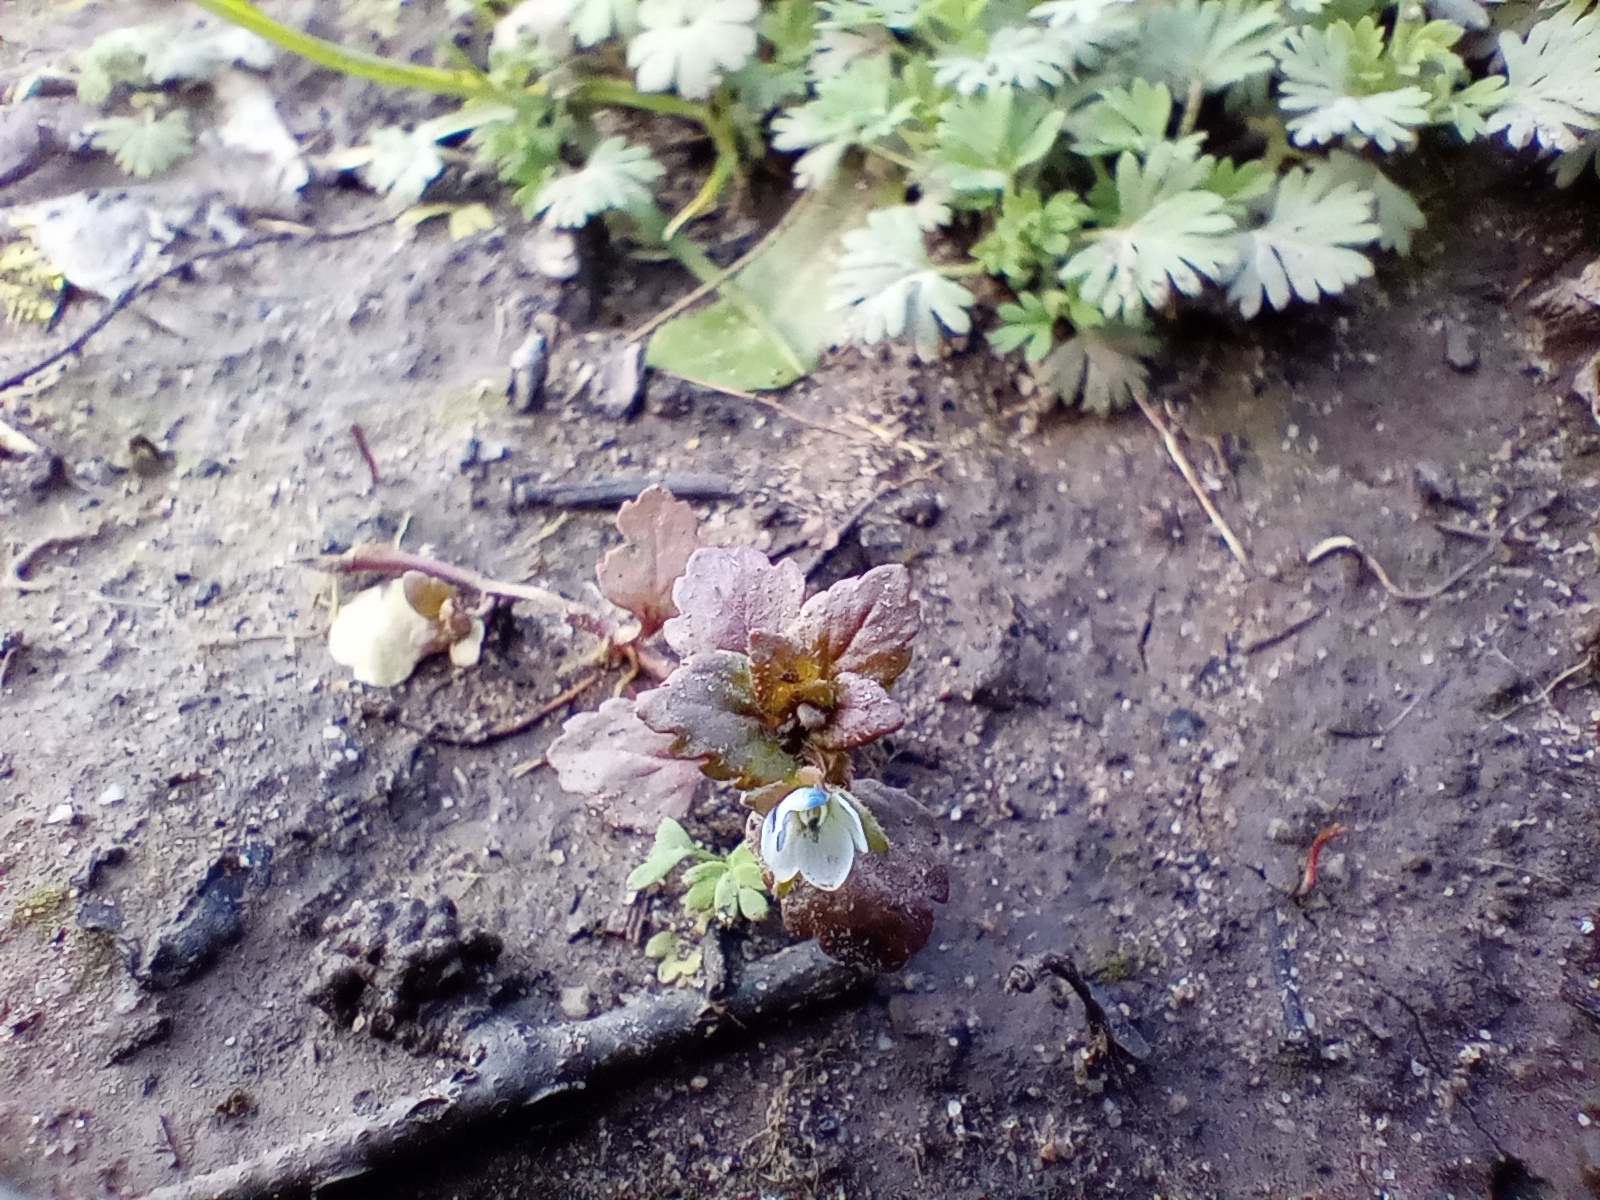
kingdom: Plantae
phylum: Tracheophyta
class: Magnoliopsida
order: Lamiales
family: Plantaginaceae
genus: Veronica
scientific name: Veronica agrestis
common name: Green field-speedwell
